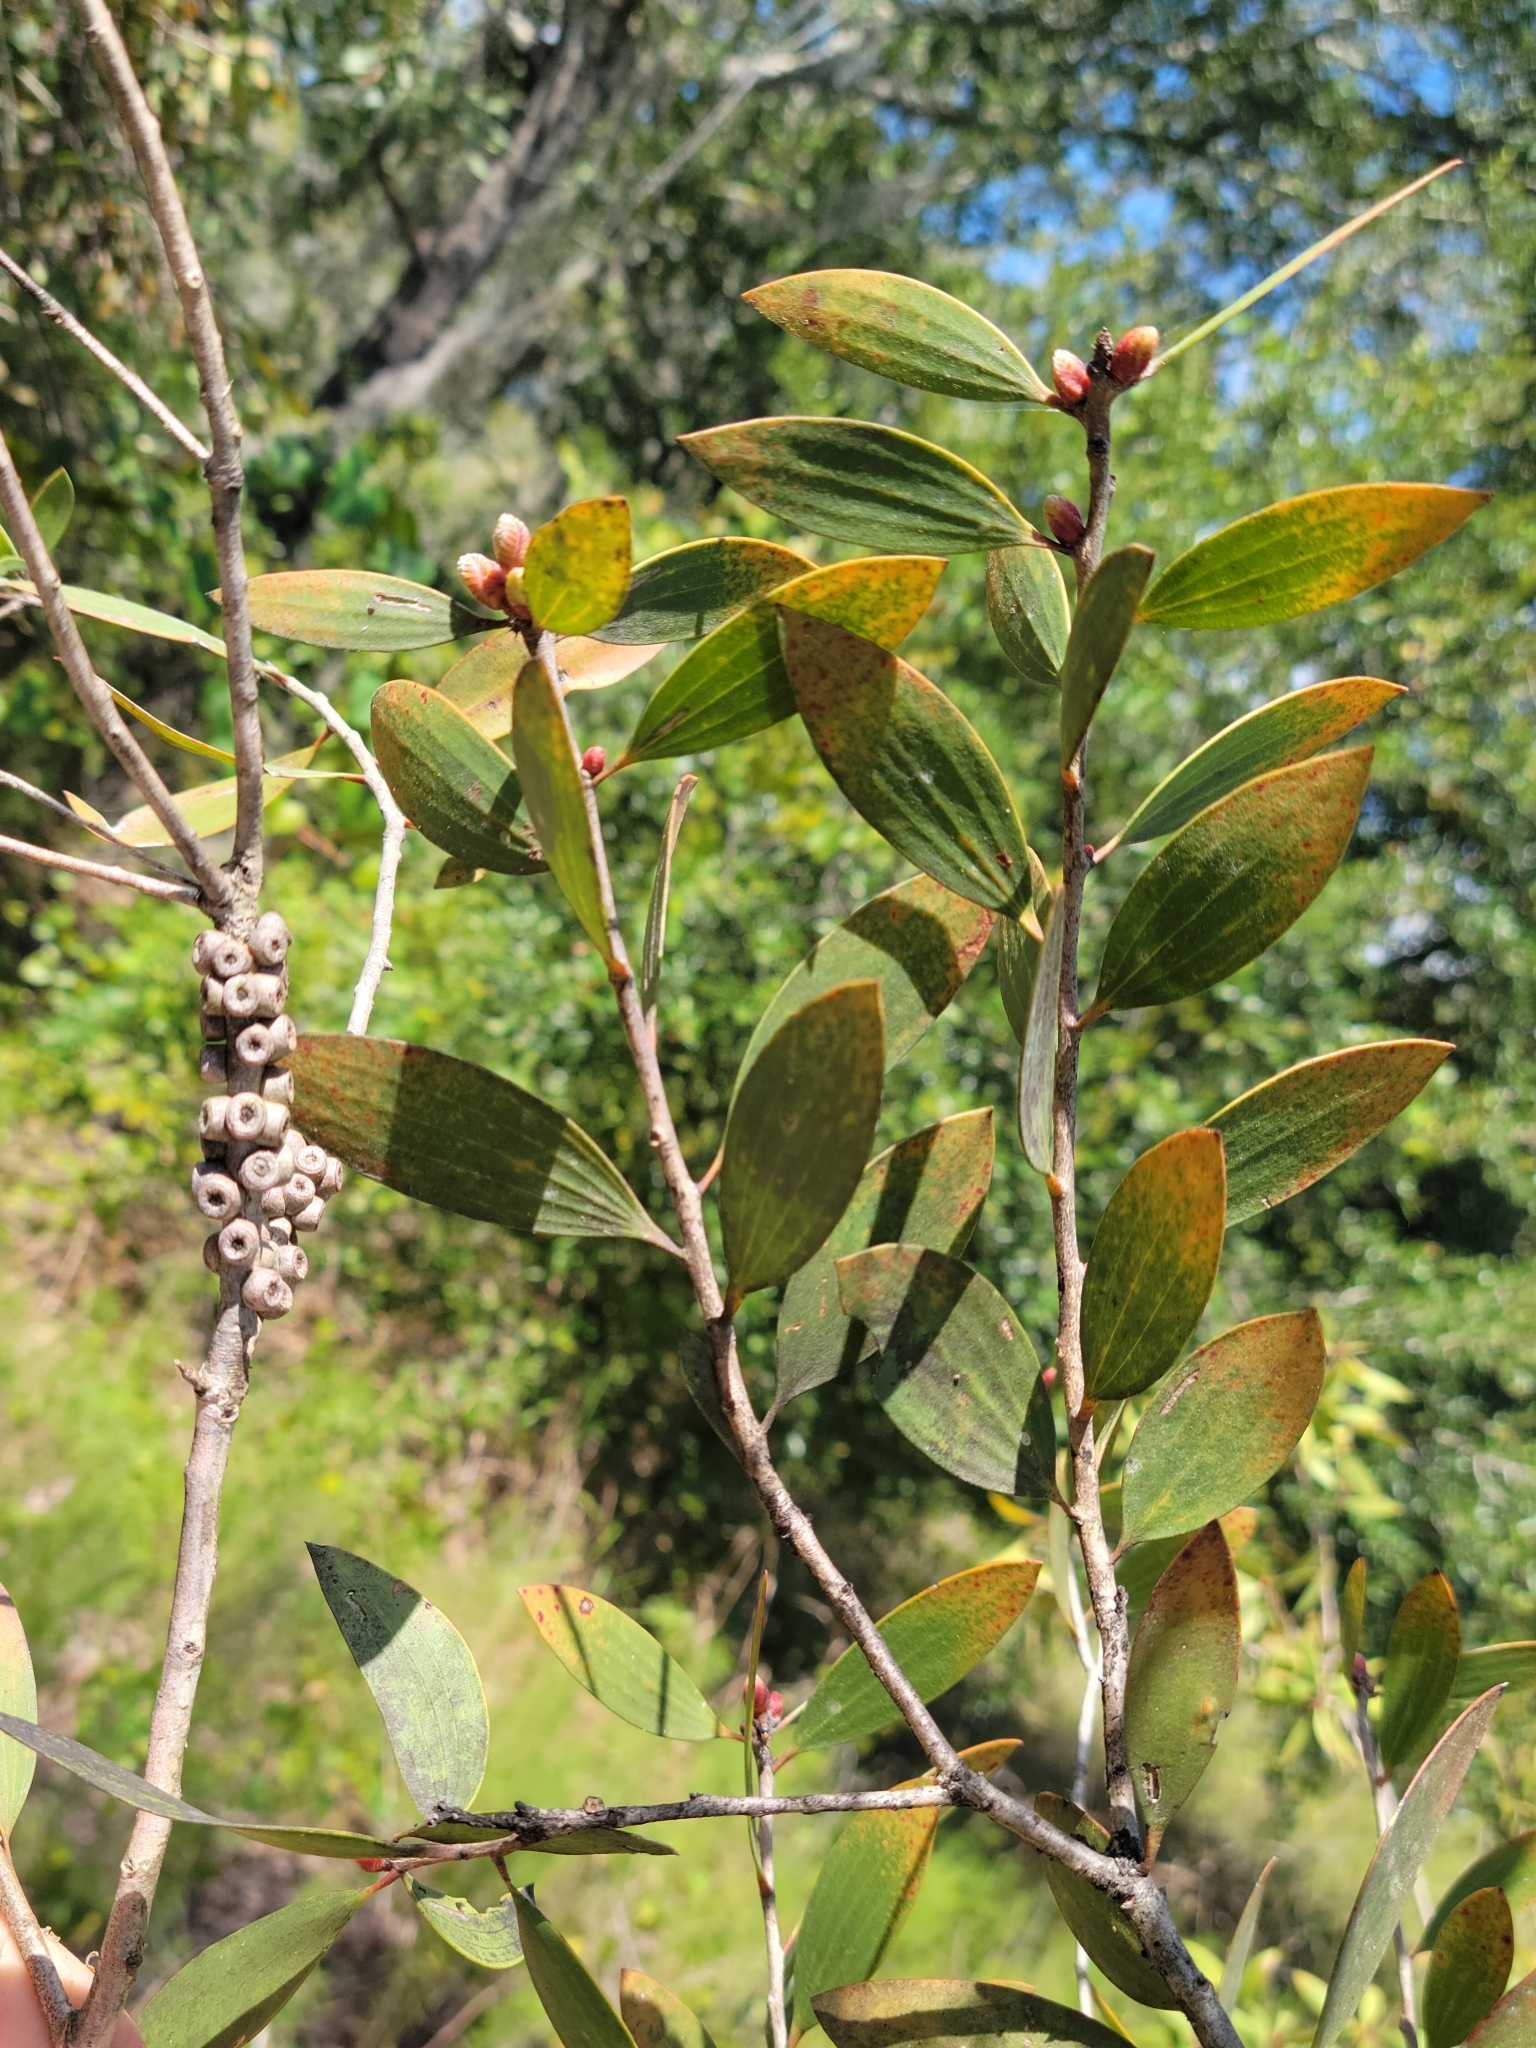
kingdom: Plantae
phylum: Tracheophyta
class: Magnoliopsida
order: Myrtales
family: Myrtaceae
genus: Melaleuca
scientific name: Melaleuca quinquenervia
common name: Punktree
